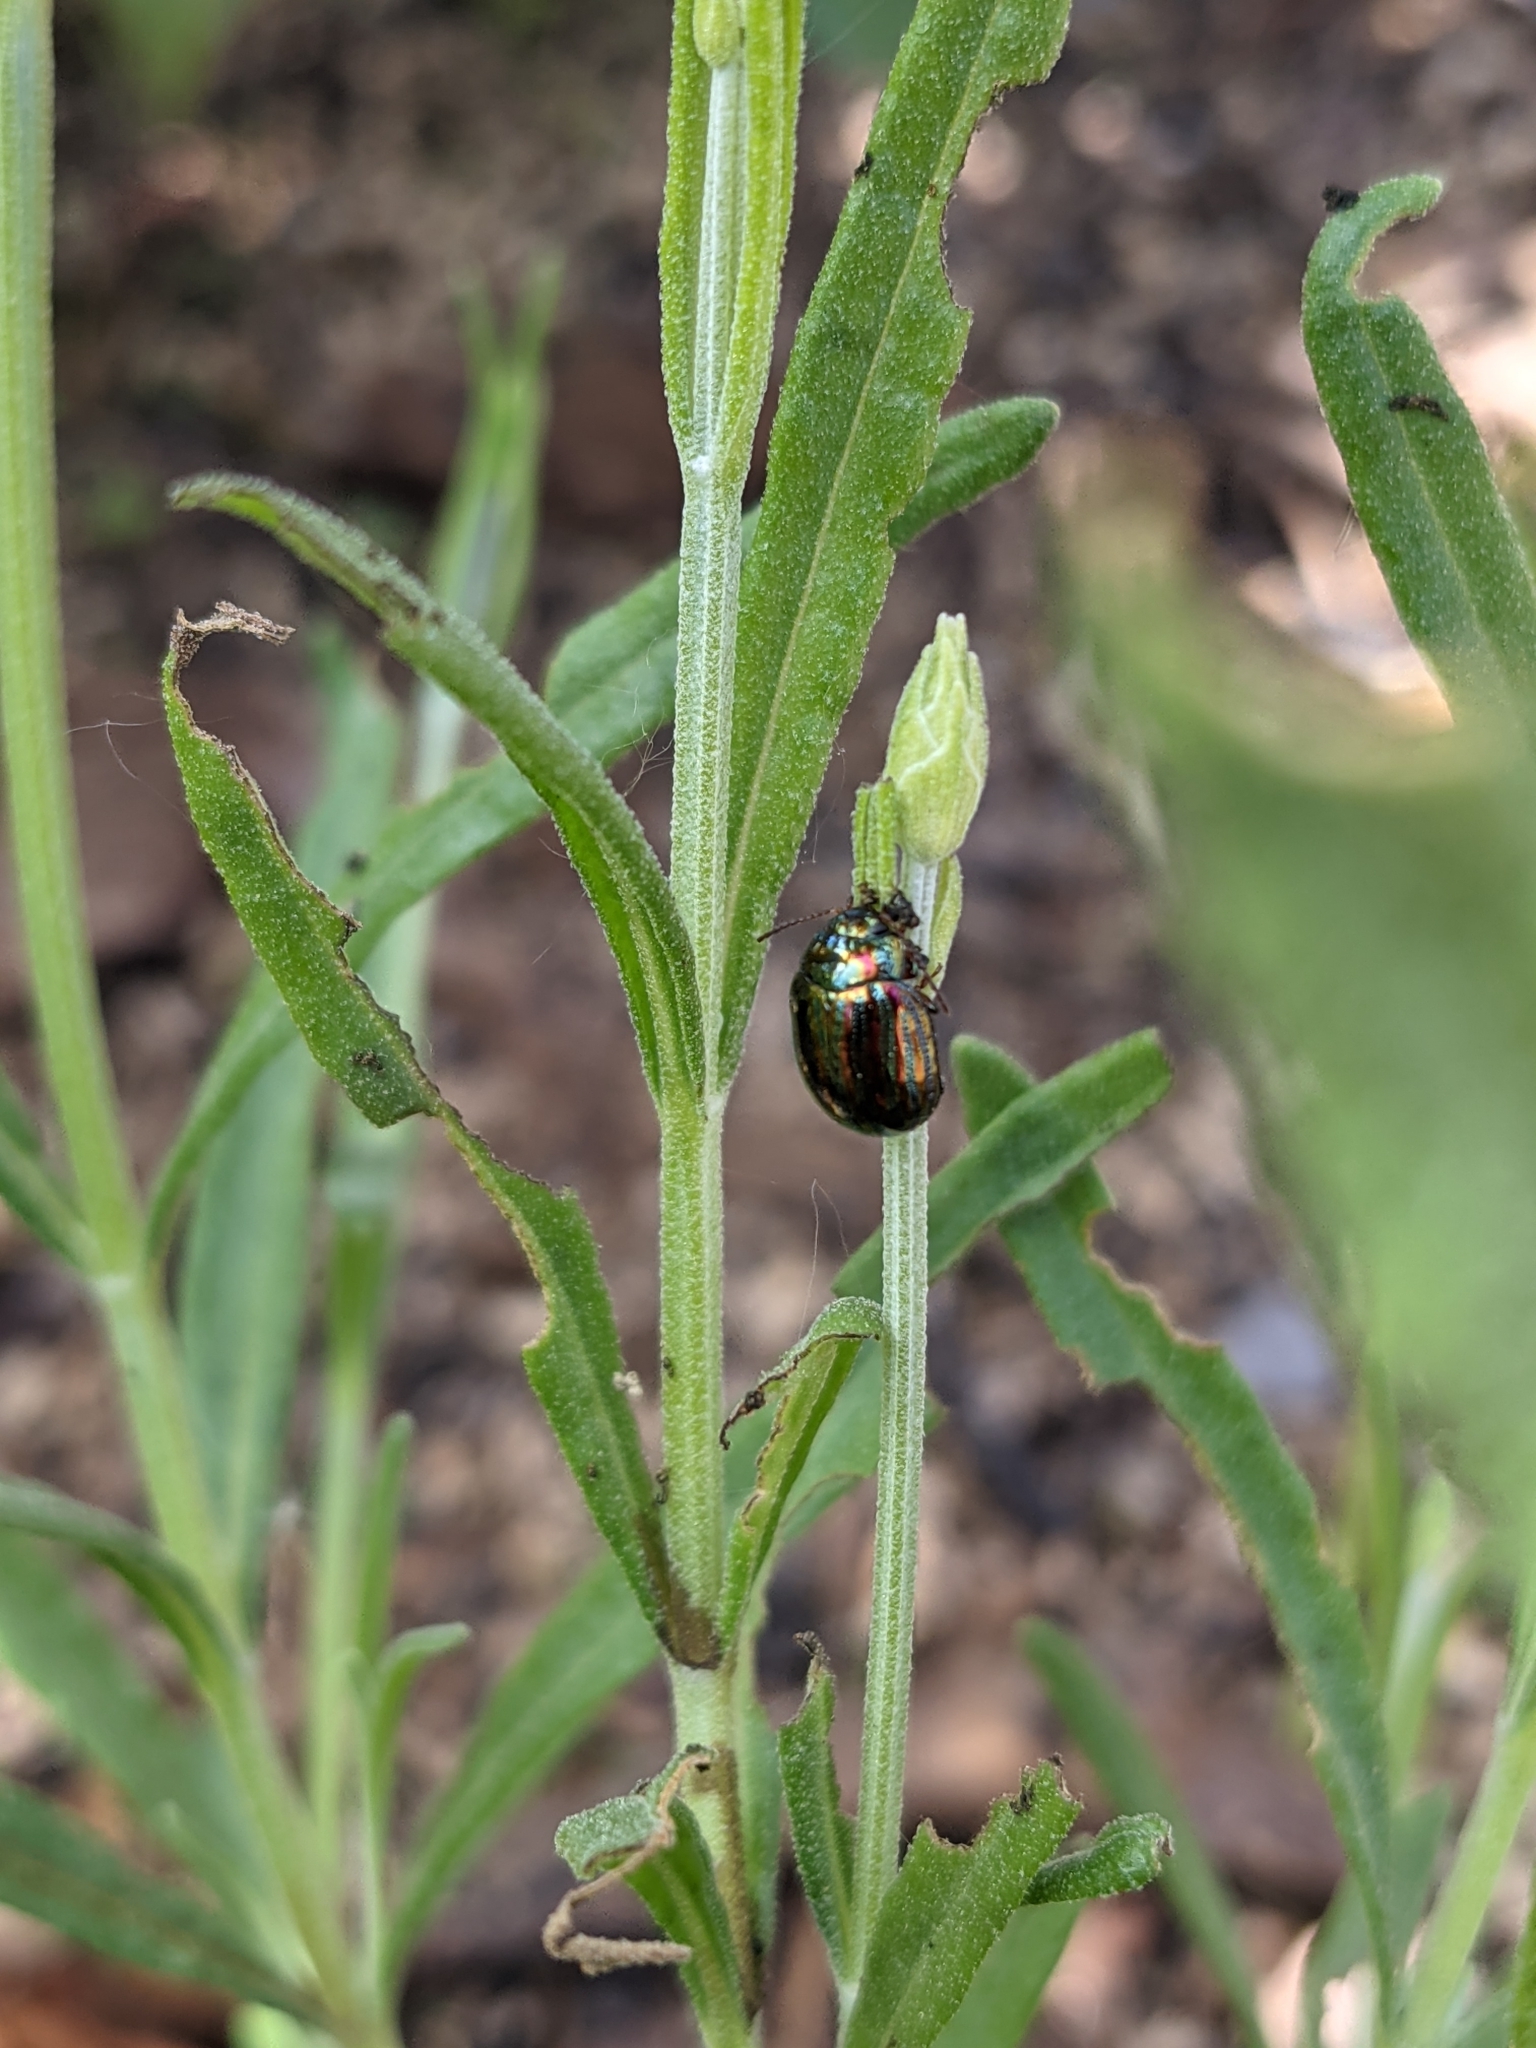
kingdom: Animalia
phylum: Arthropoda
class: Insecta
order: Coleoptera
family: Chrysomelidae
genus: Chrysolina
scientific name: Chrysolina americana
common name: Rosemary beetle
